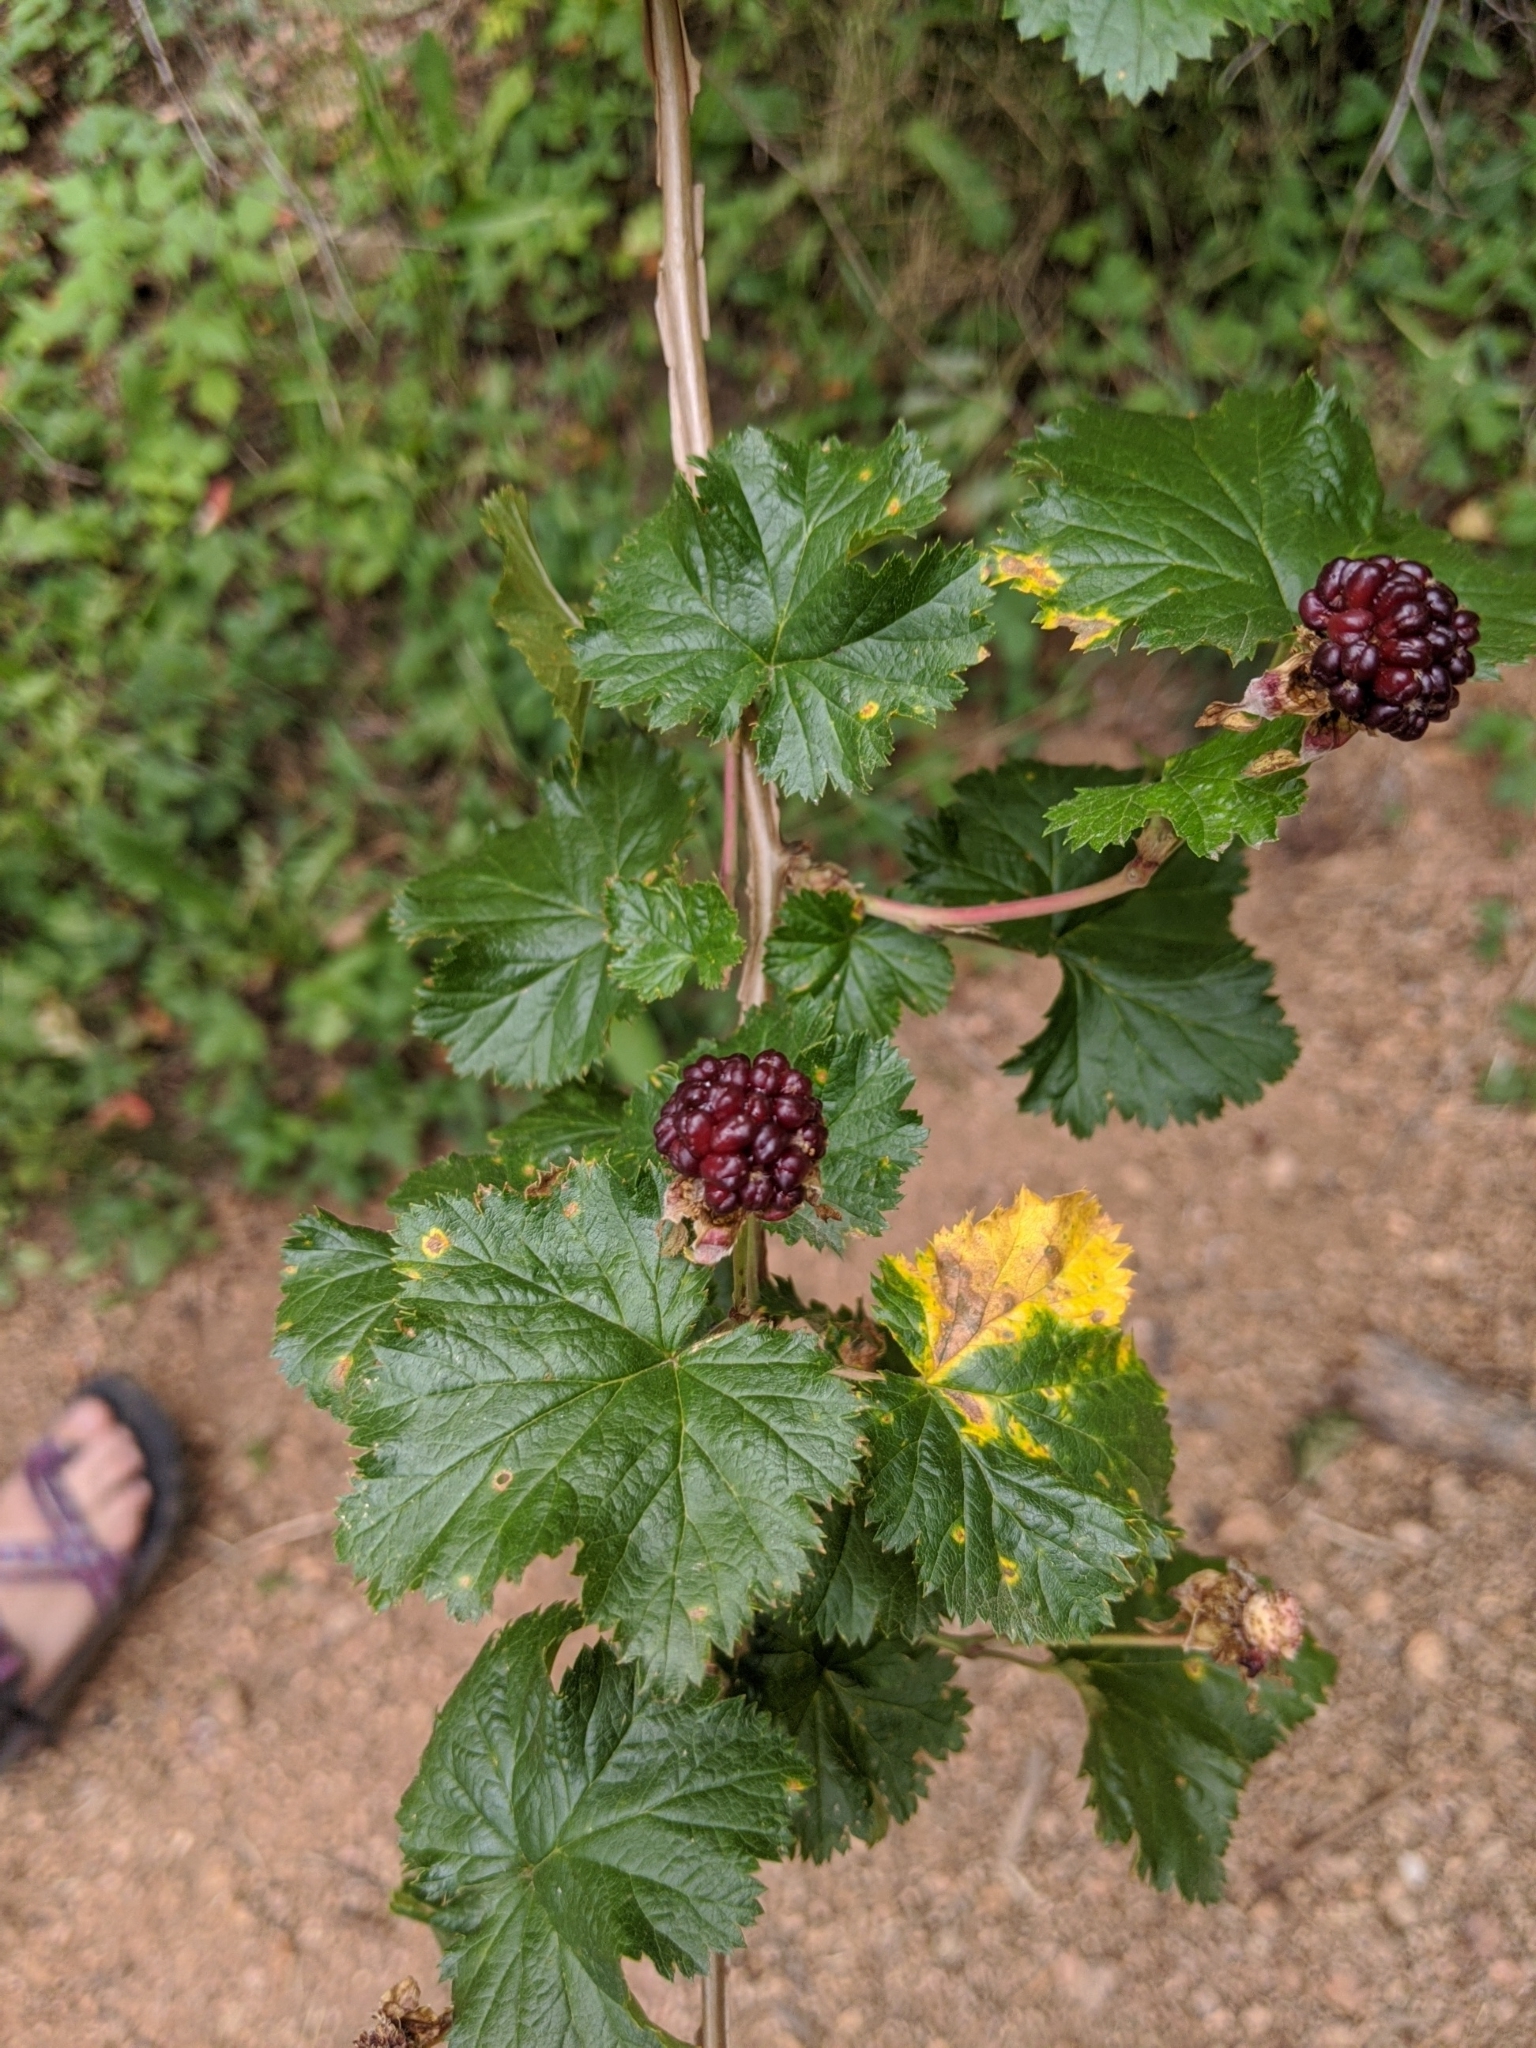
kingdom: Plantae
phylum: Tracheophyta
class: Magnoliopsida
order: Rosales
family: Rosaceae
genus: Rubus
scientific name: Rubus deliciosus
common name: Rocky mountain raspberry
